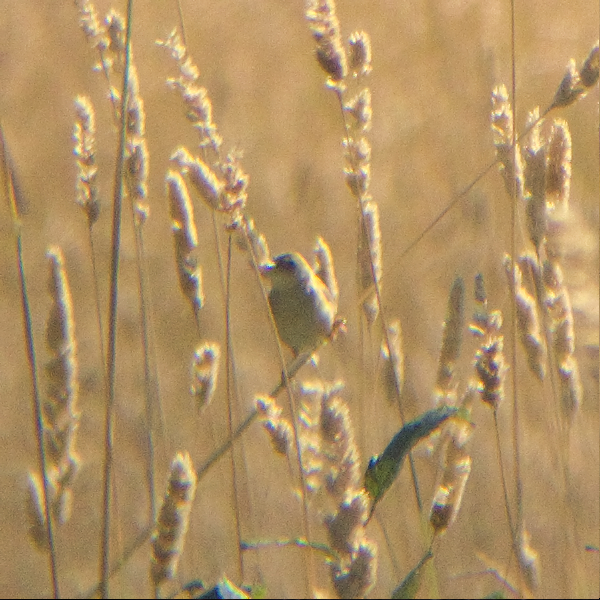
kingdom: Animalia
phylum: Chordata
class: Aves
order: Passeriformes
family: Cisticolidae
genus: Cisticola
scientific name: Cisticola exilis
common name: Golden-headed cisticola
